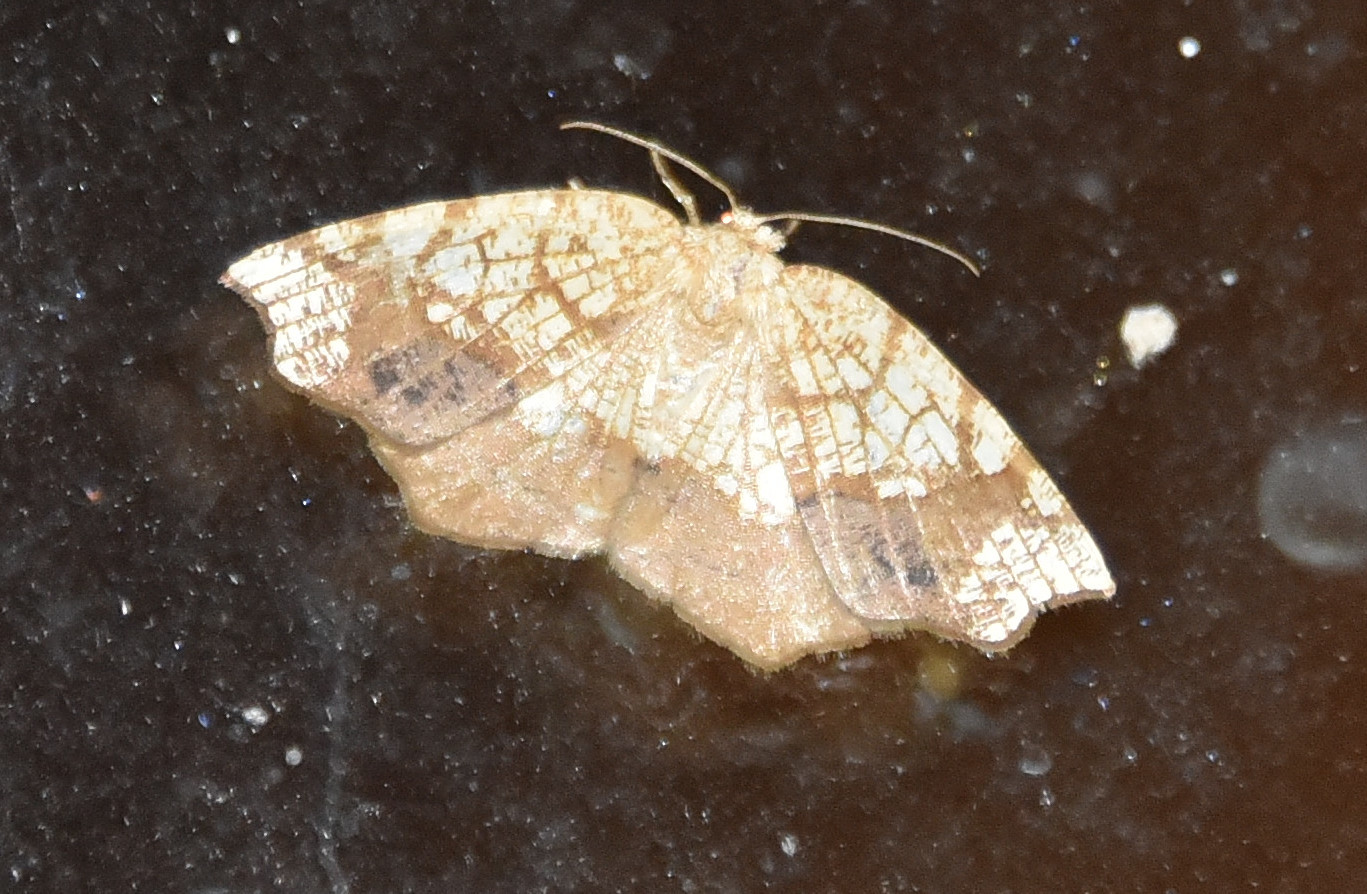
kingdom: Animalia
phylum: Arthropoda
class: Insecta
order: Lepidoptera
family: Geometridae
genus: Nematocampa
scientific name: Nematocampa resistaria
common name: Horned spanworm moth
